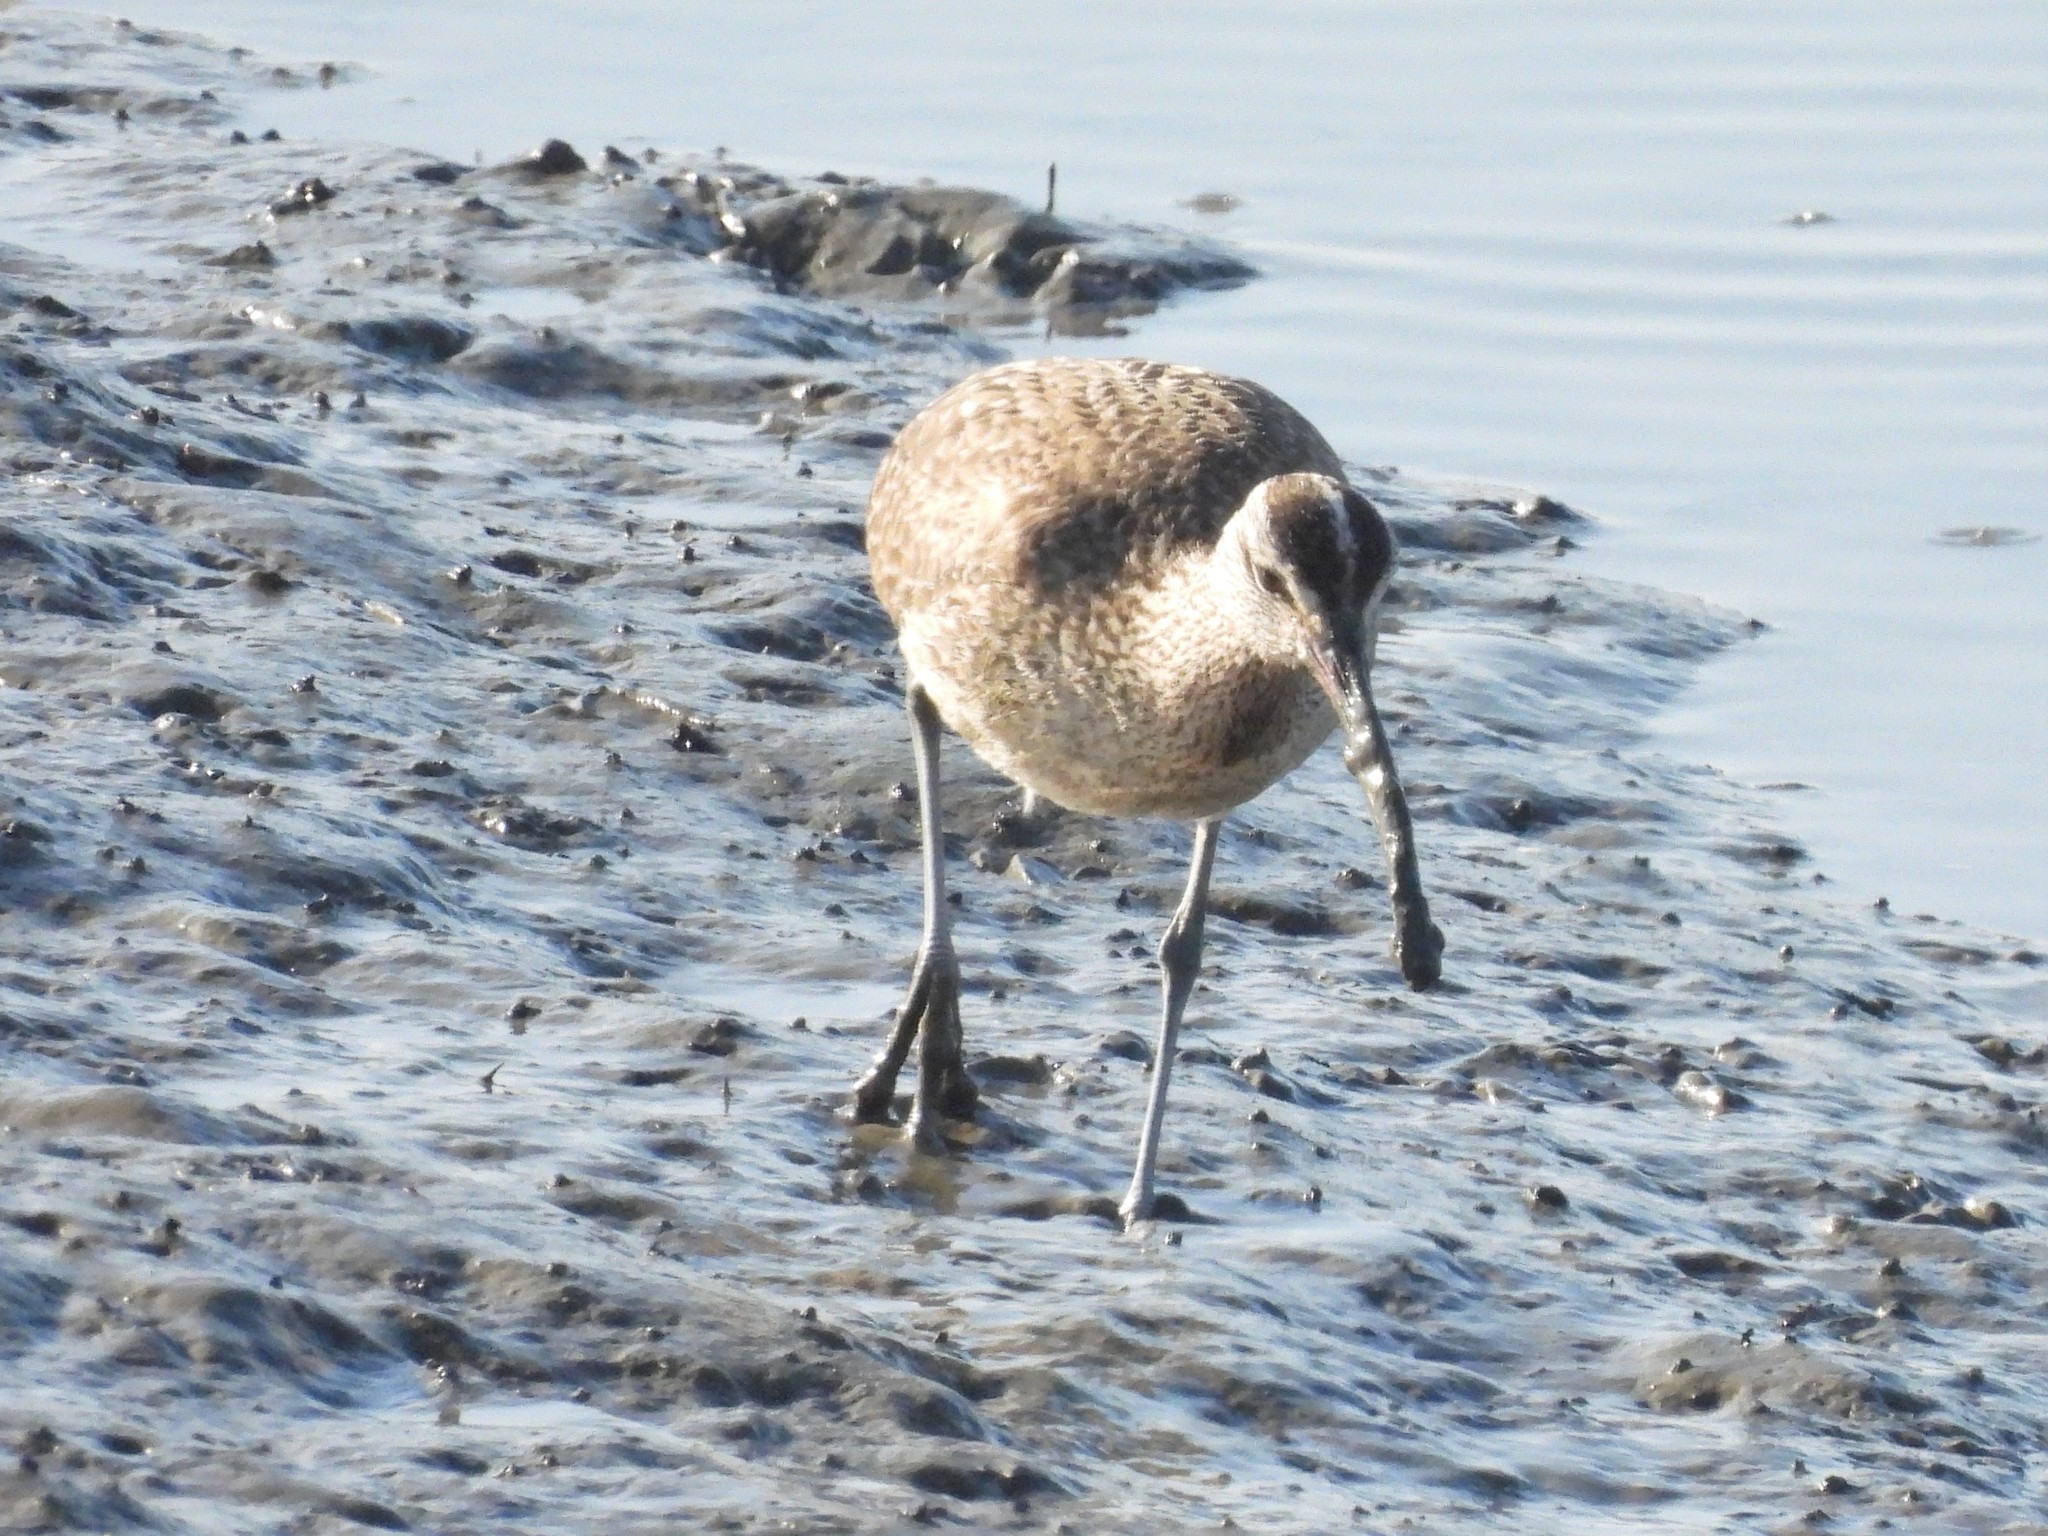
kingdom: Animalia
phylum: Chordata
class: Aves
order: Charadriiformes
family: Scolopacidae
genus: Numenius
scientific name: Numenius phaeopus
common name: Whimbrel
